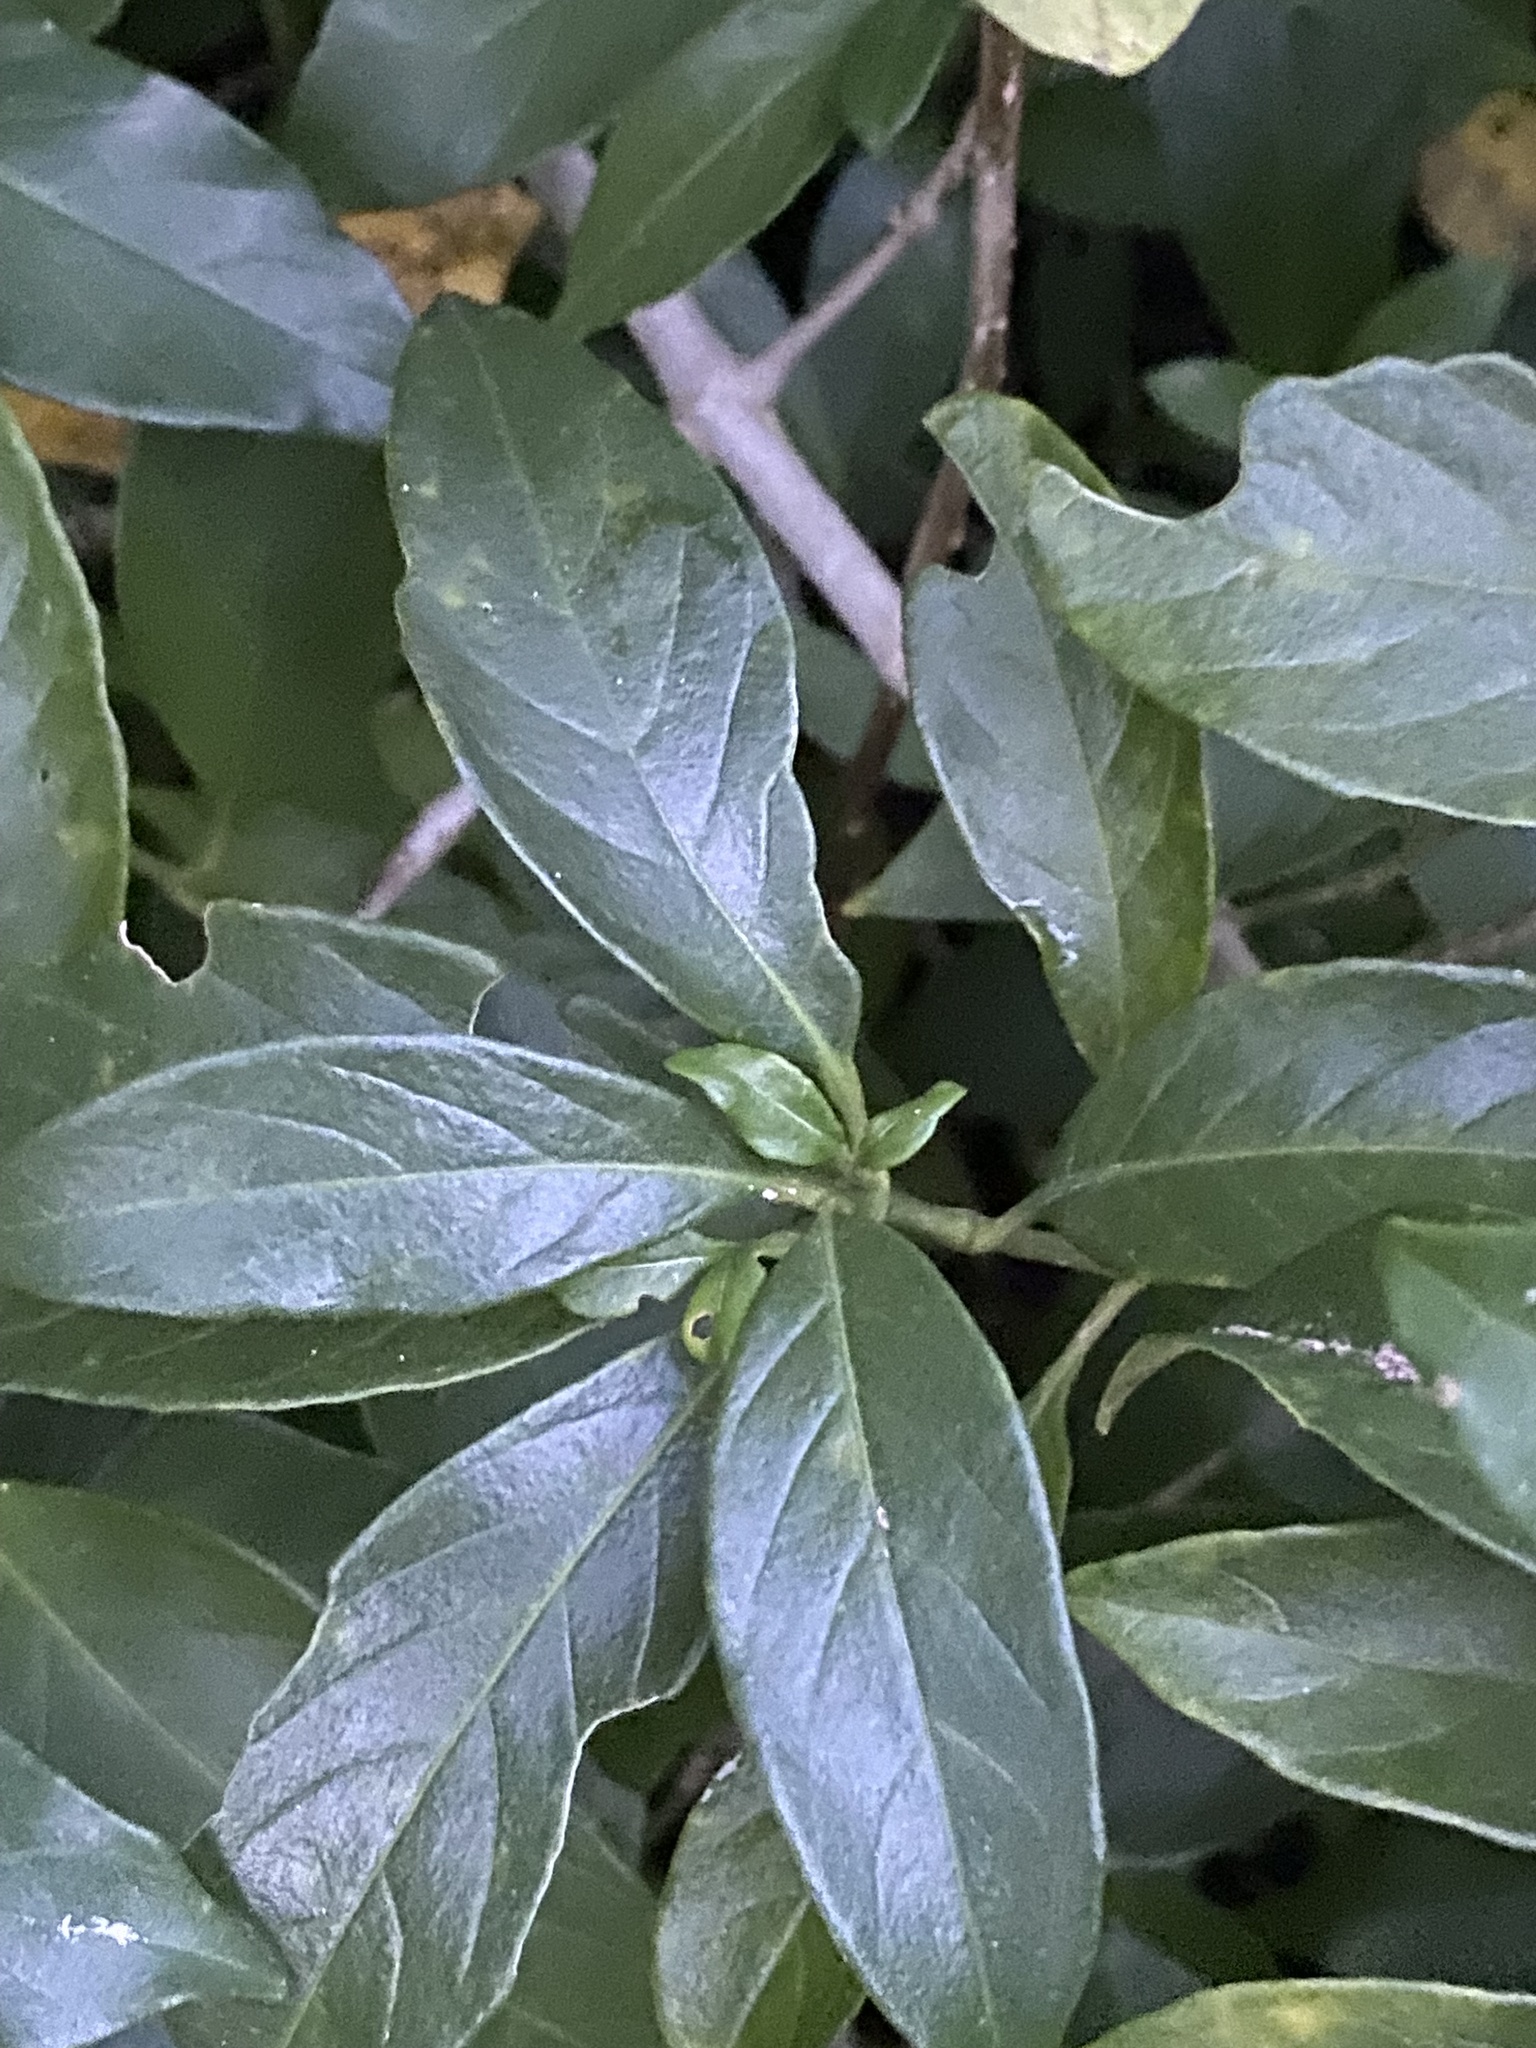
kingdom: Plantae
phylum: Tracheophyta
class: Magnoliopsida
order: Lamiales
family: Acanthaceae
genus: Bravaisia
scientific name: Bravaisia berlandieriana
